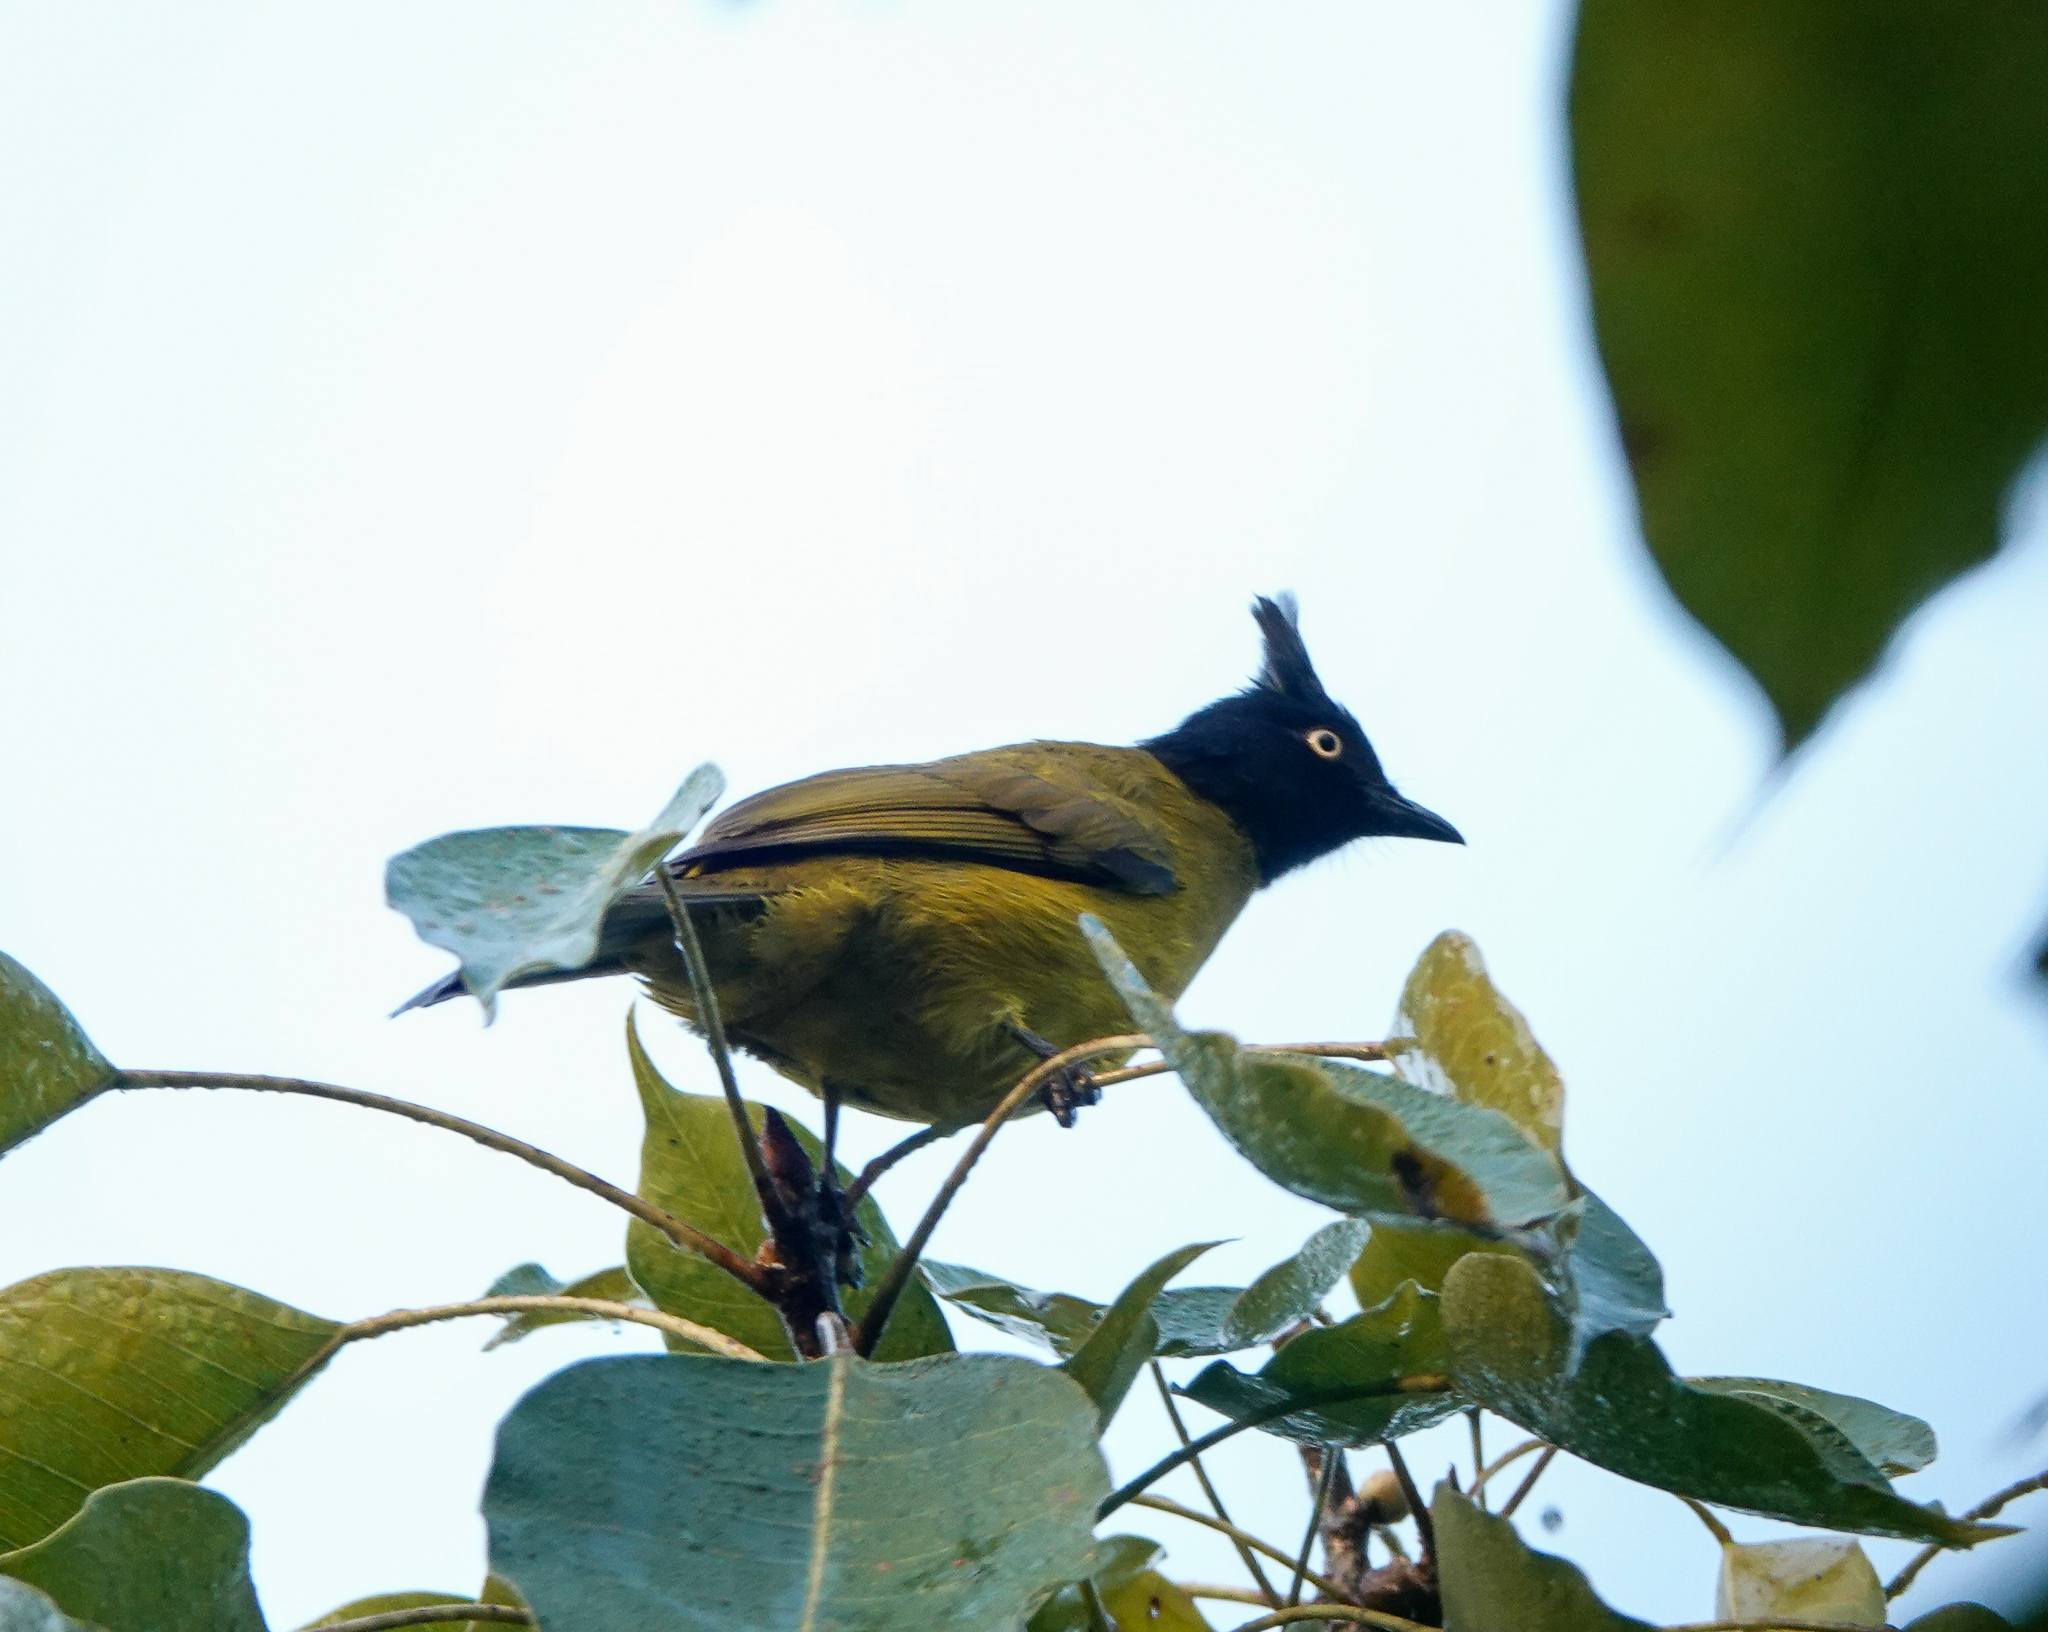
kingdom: Animalia
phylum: Chordata
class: Aves
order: Passeriformes
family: Pycnonotidae
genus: Pycnonotus
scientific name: Pycnonotus flaviventris
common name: Black-crested bulbul
